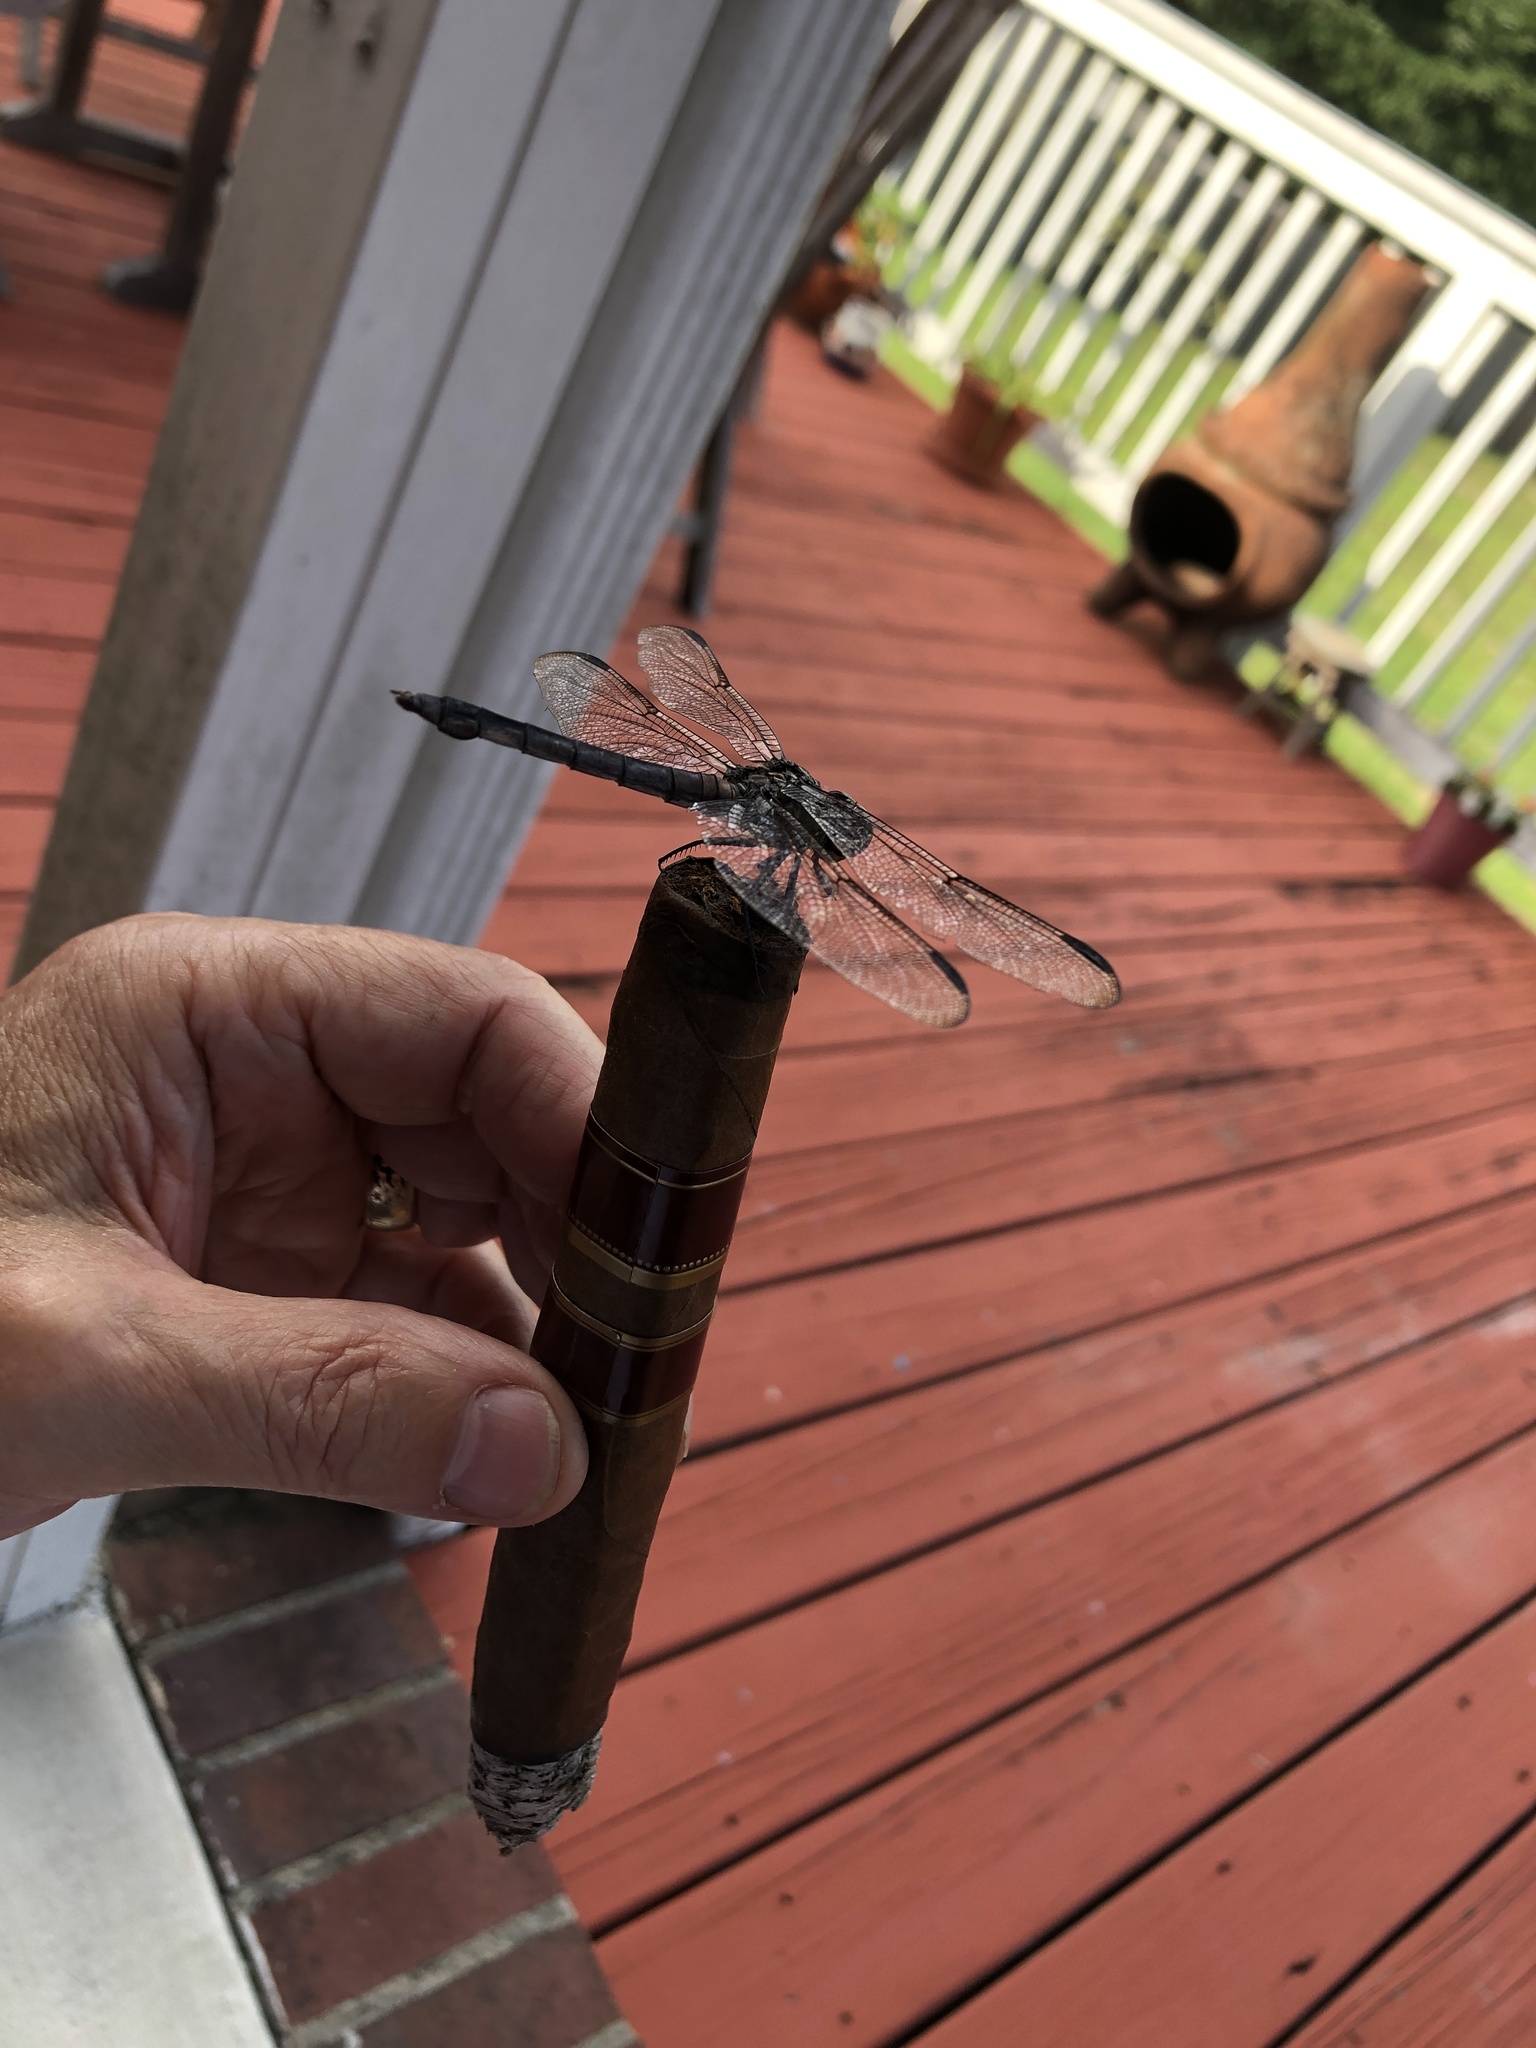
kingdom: Animalia
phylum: Arthropoda
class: Insecta
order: Odonata
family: Libellulidae
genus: Libellula
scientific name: Libellula axilena
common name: Bar-winged skimmer
